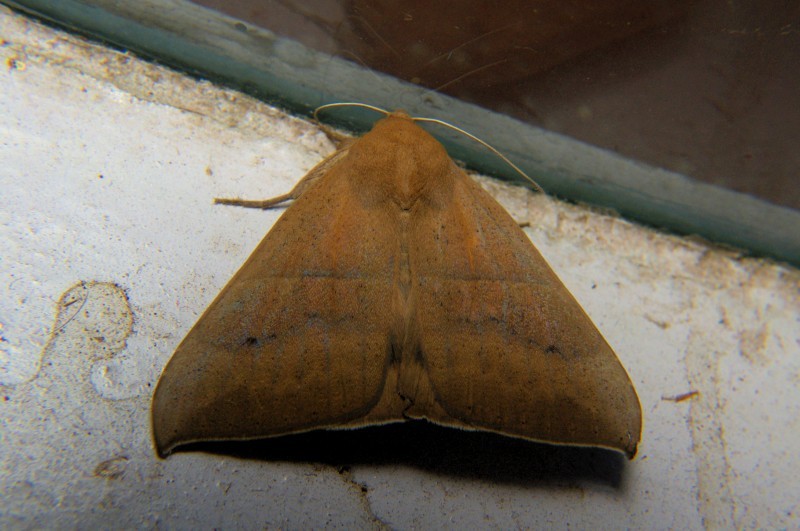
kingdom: Animalia
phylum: Arthropoda
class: Insecta
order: Lepidoptera
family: Erebidae
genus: Ophisma
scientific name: Ophisma gravata
